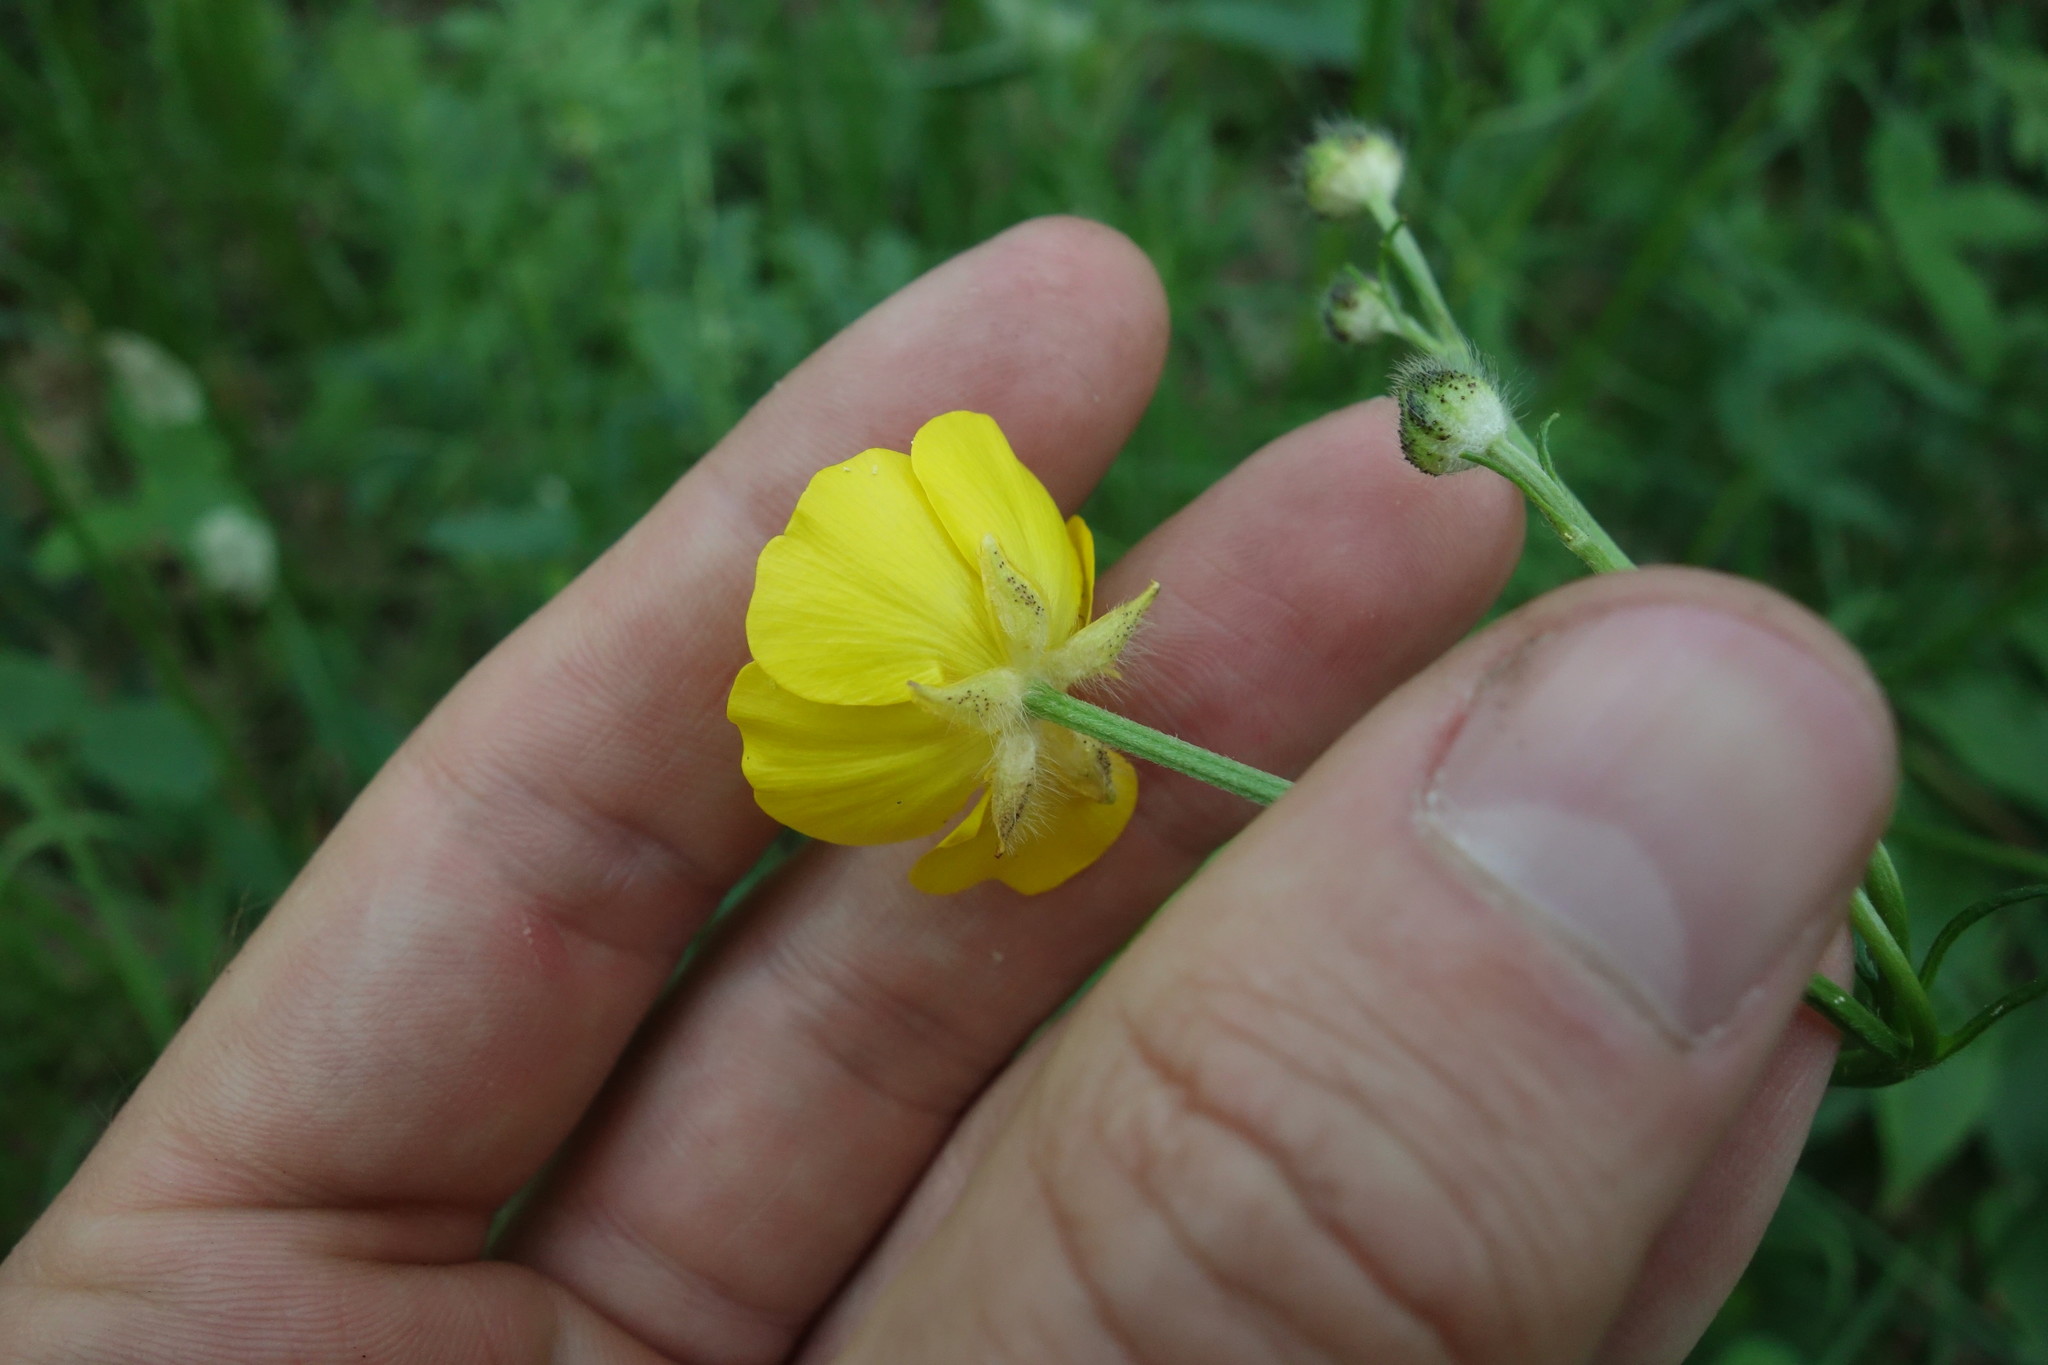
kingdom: Plantae
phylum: Tracheophyta
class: Magnoliopsida
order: Ranunculales
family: Ranunculaceae
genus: Ranunculus
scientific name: Ranunculus polyanthemos
